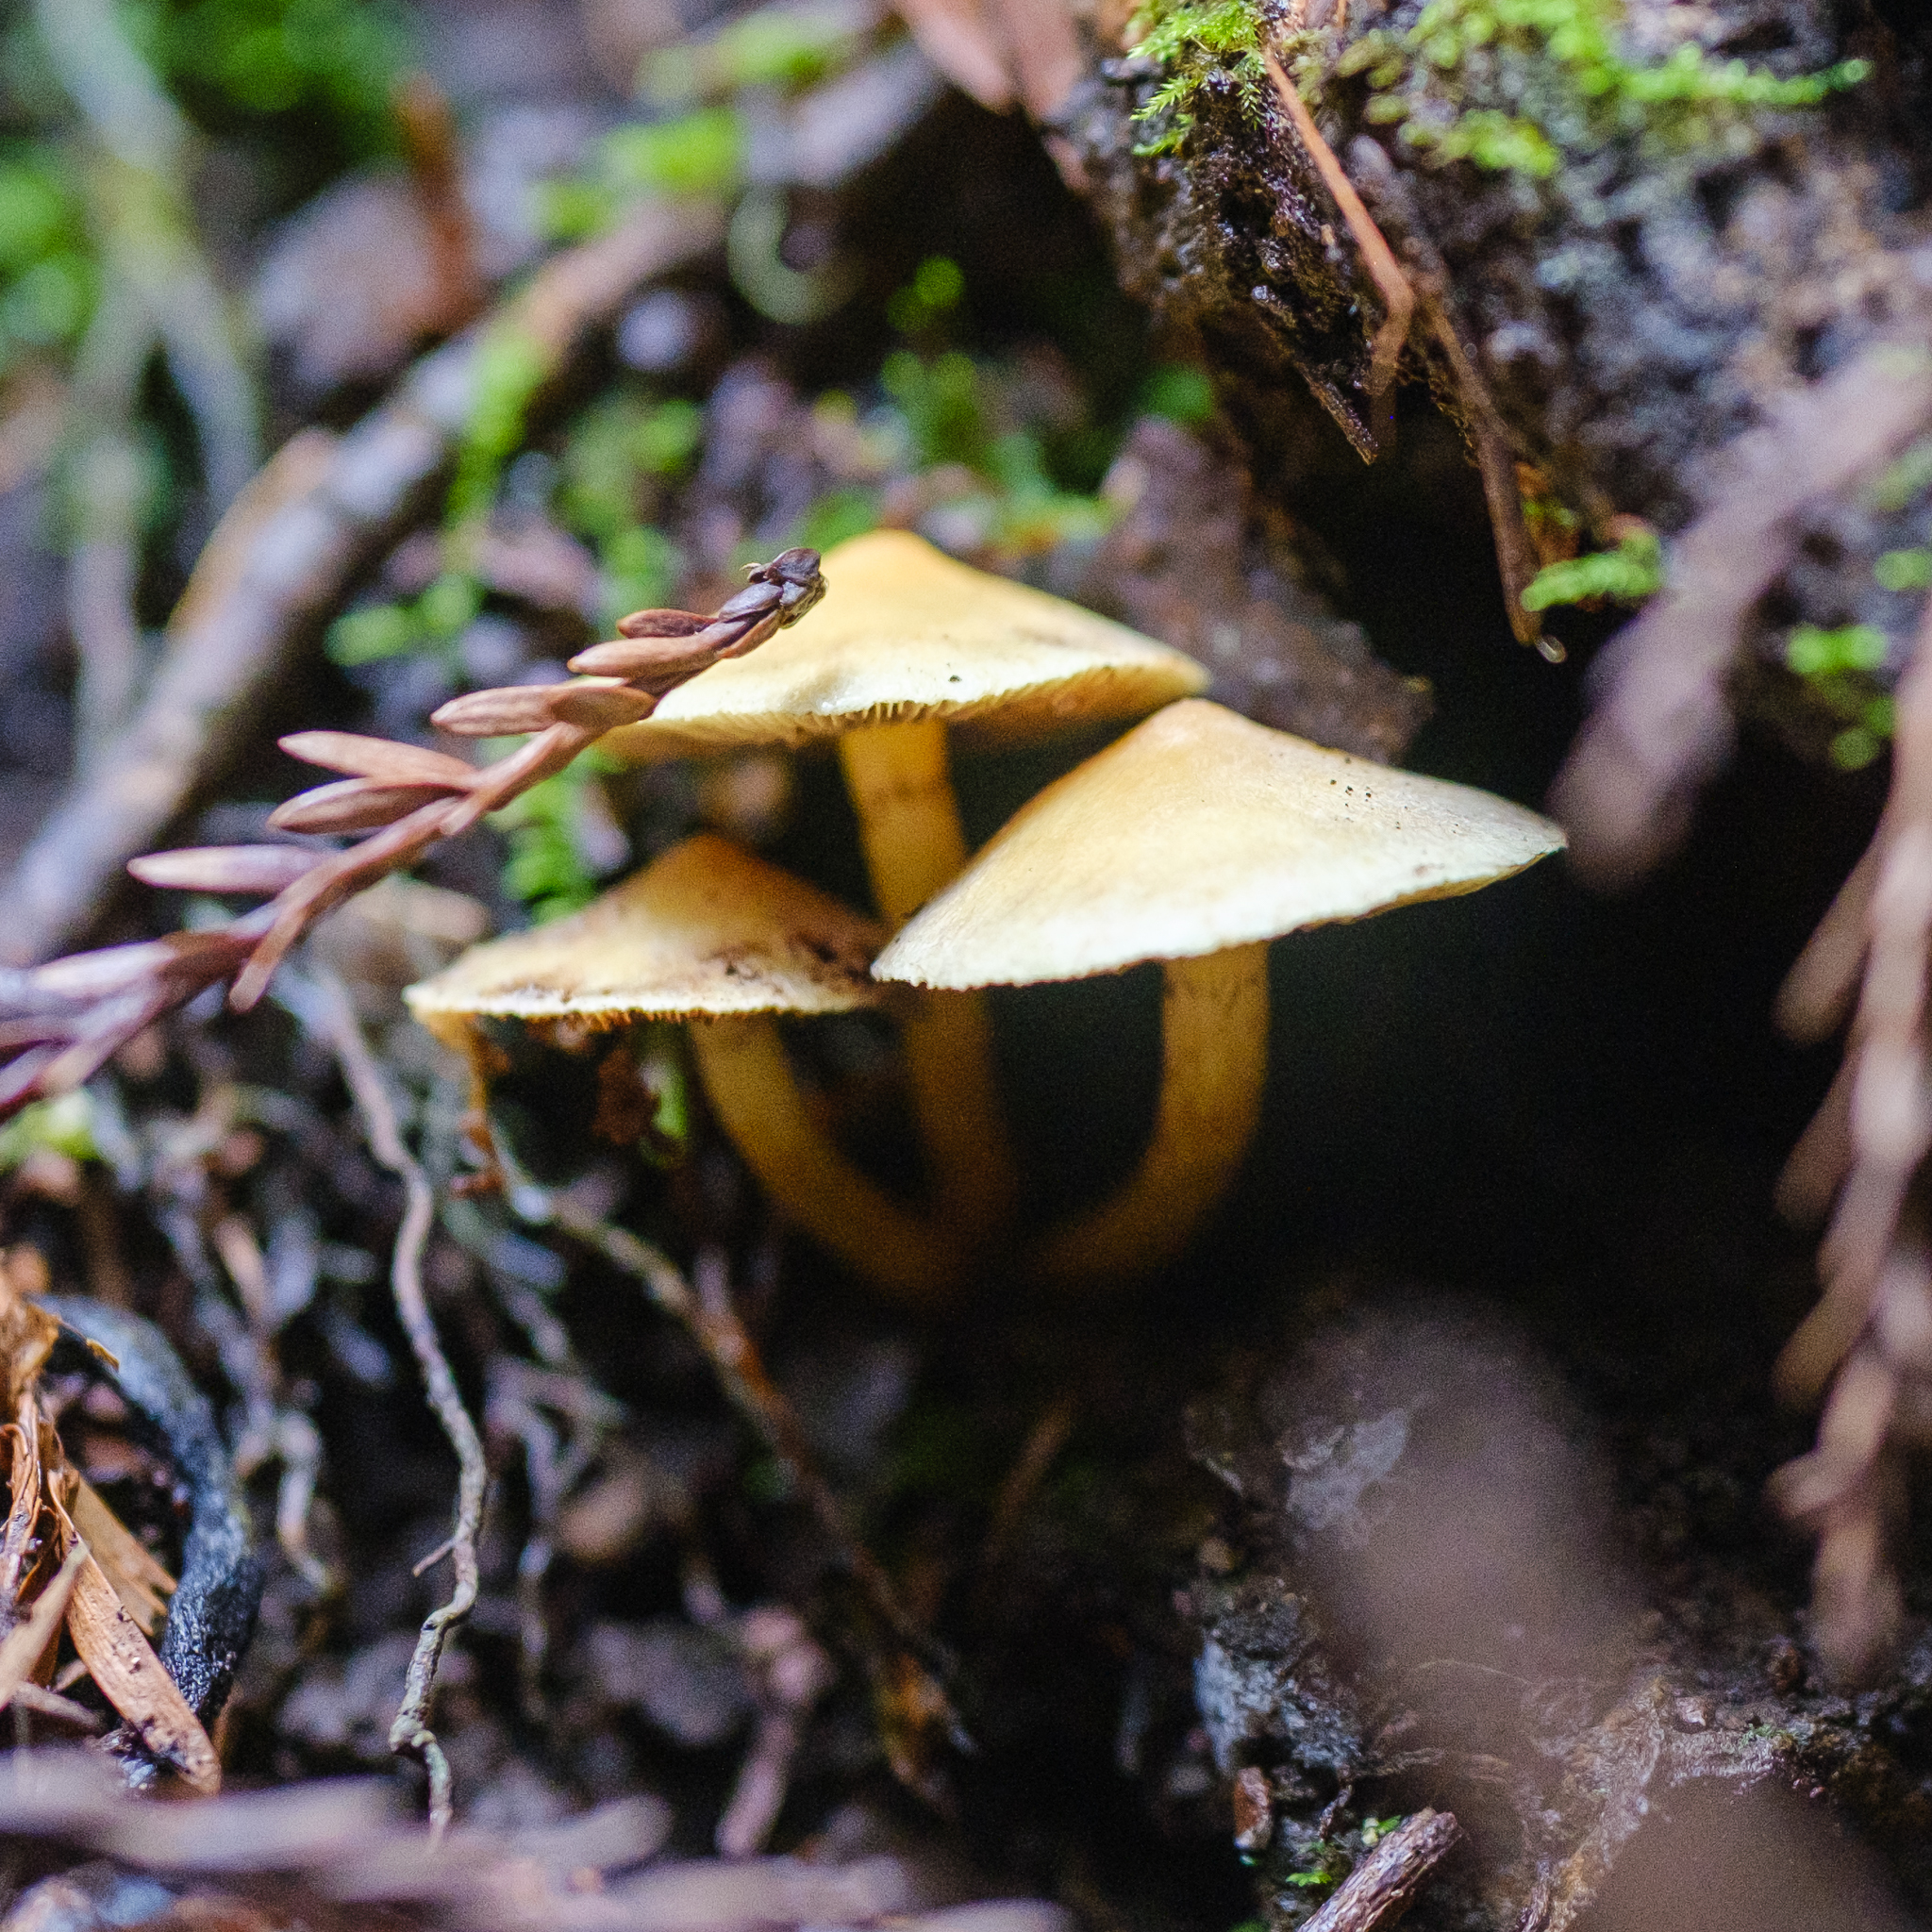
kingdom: Fungi
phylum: Basidiomycota
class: Agaricomycetes
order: Agaricales
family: Strophariaceae
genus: Hypholoma
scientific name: Hypholoma fasciculare
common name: Sulphur tuft
